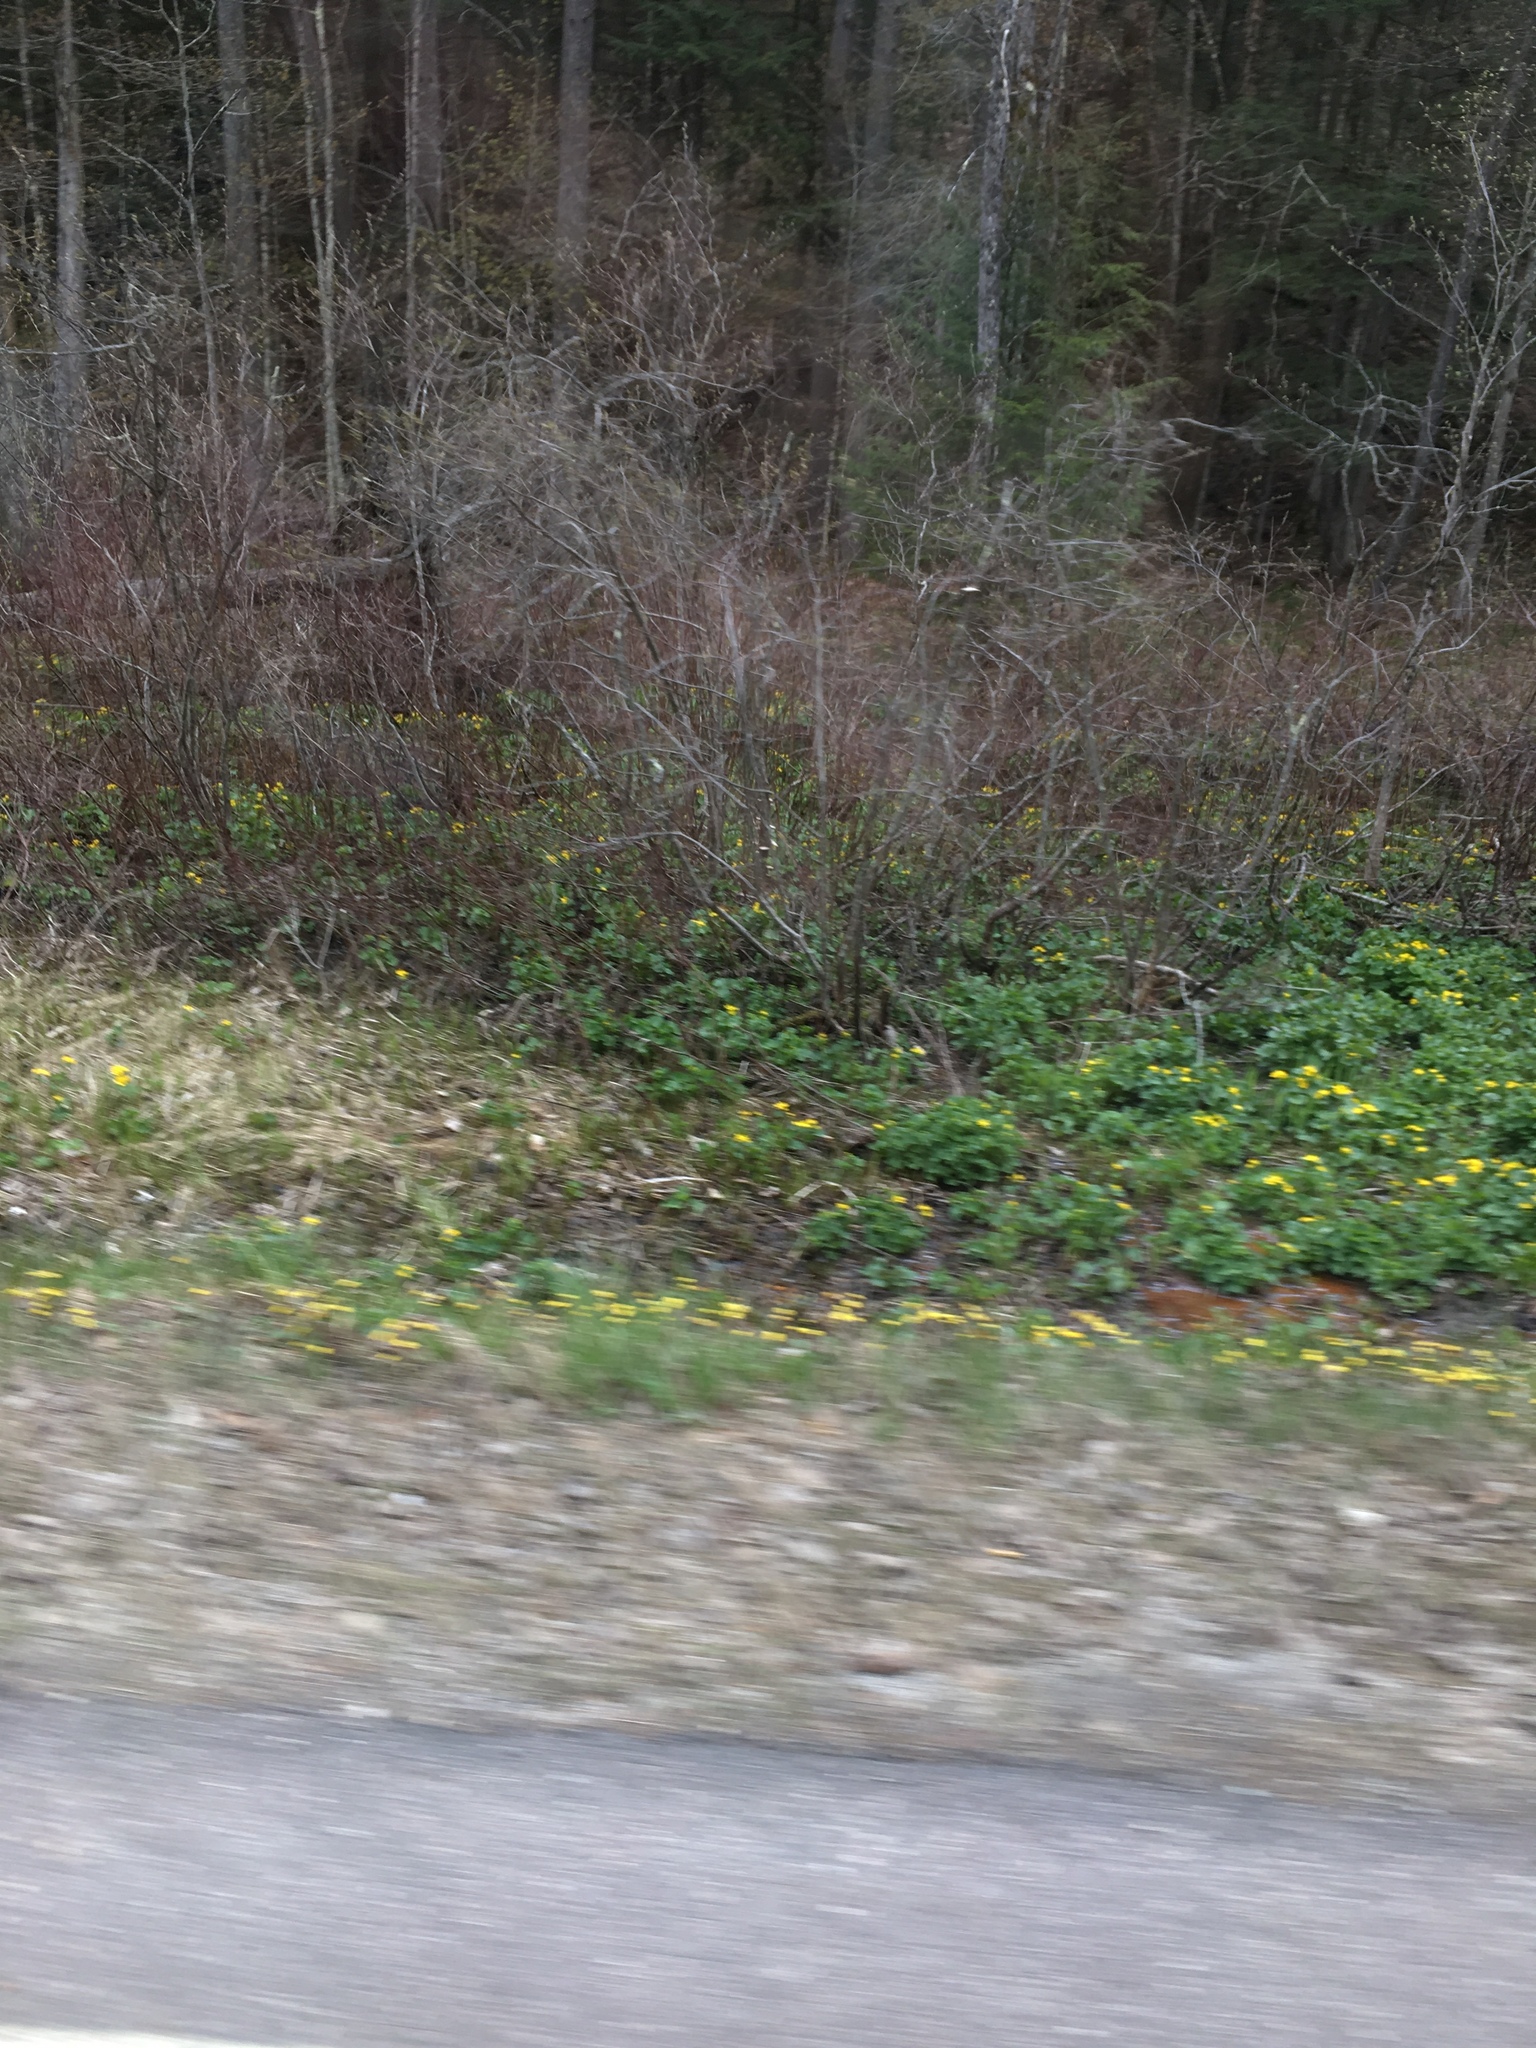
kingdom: Plantae
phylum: Tracheophyta
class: Magnoliopsida
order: Ranunculales
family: Ranunculaceae
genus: Caltha
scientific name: Caltha palustris
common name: Marsh marigold
